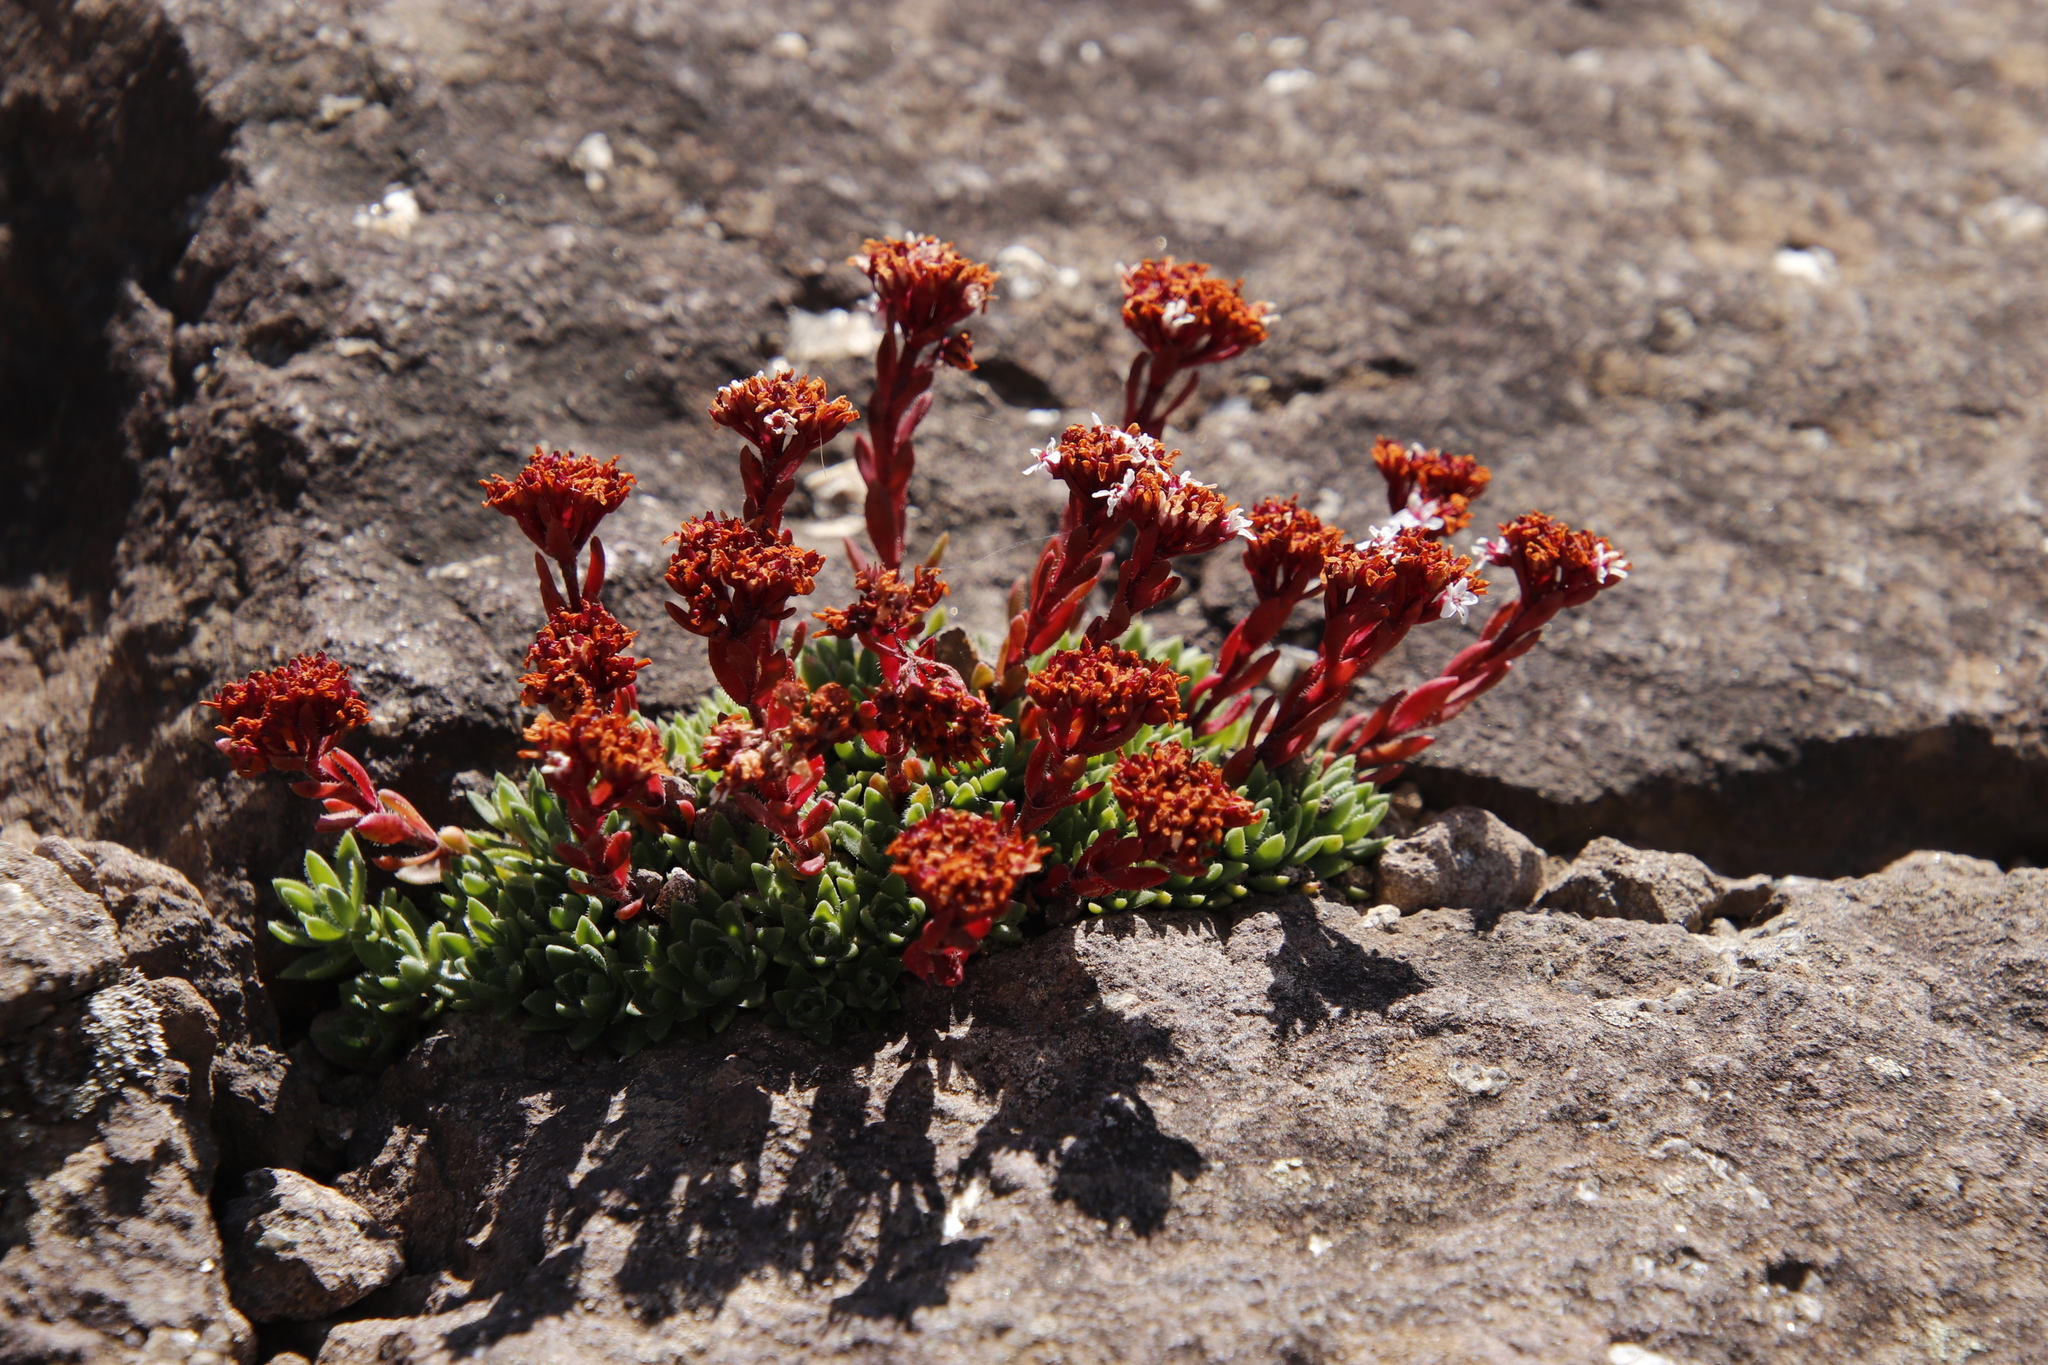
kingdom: Plantae
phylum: Tracheophyta
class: Magnoliopsida
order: Saxifragales
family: Crassulaceae
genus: Crassula
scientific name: Crassula setulosa
